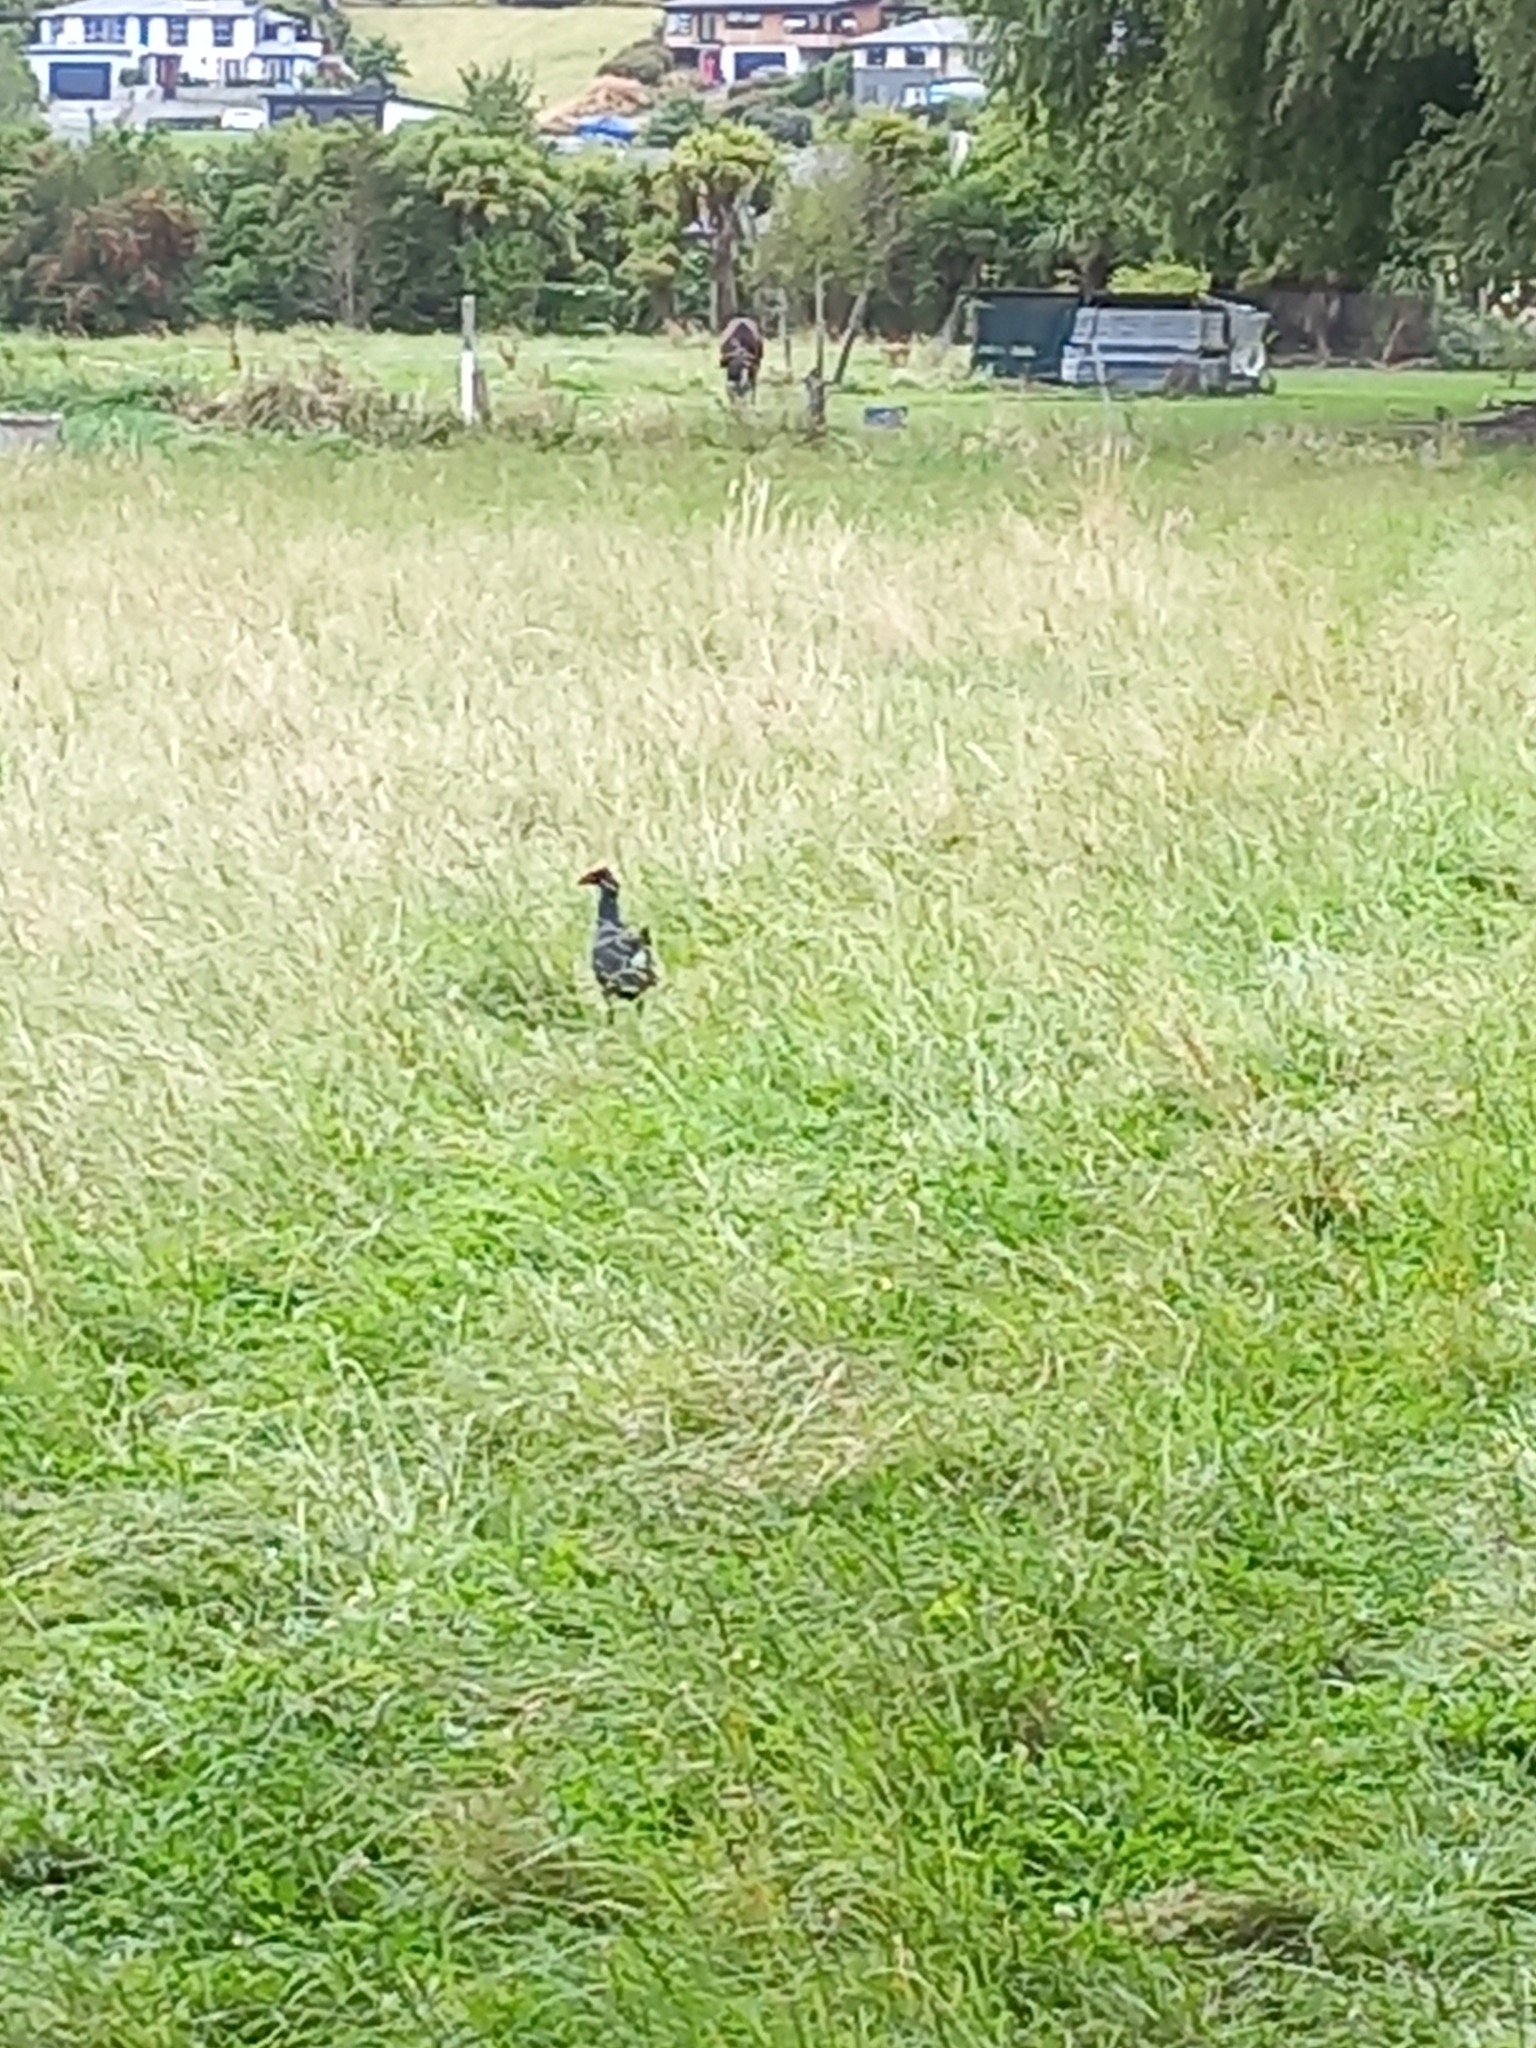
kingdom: Animalia
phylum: Chordata
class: Aves
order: Gruiformes
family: Rallidae
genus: Porphyrio
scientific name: Porphyrio melanotus
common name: Australasian swamphen
